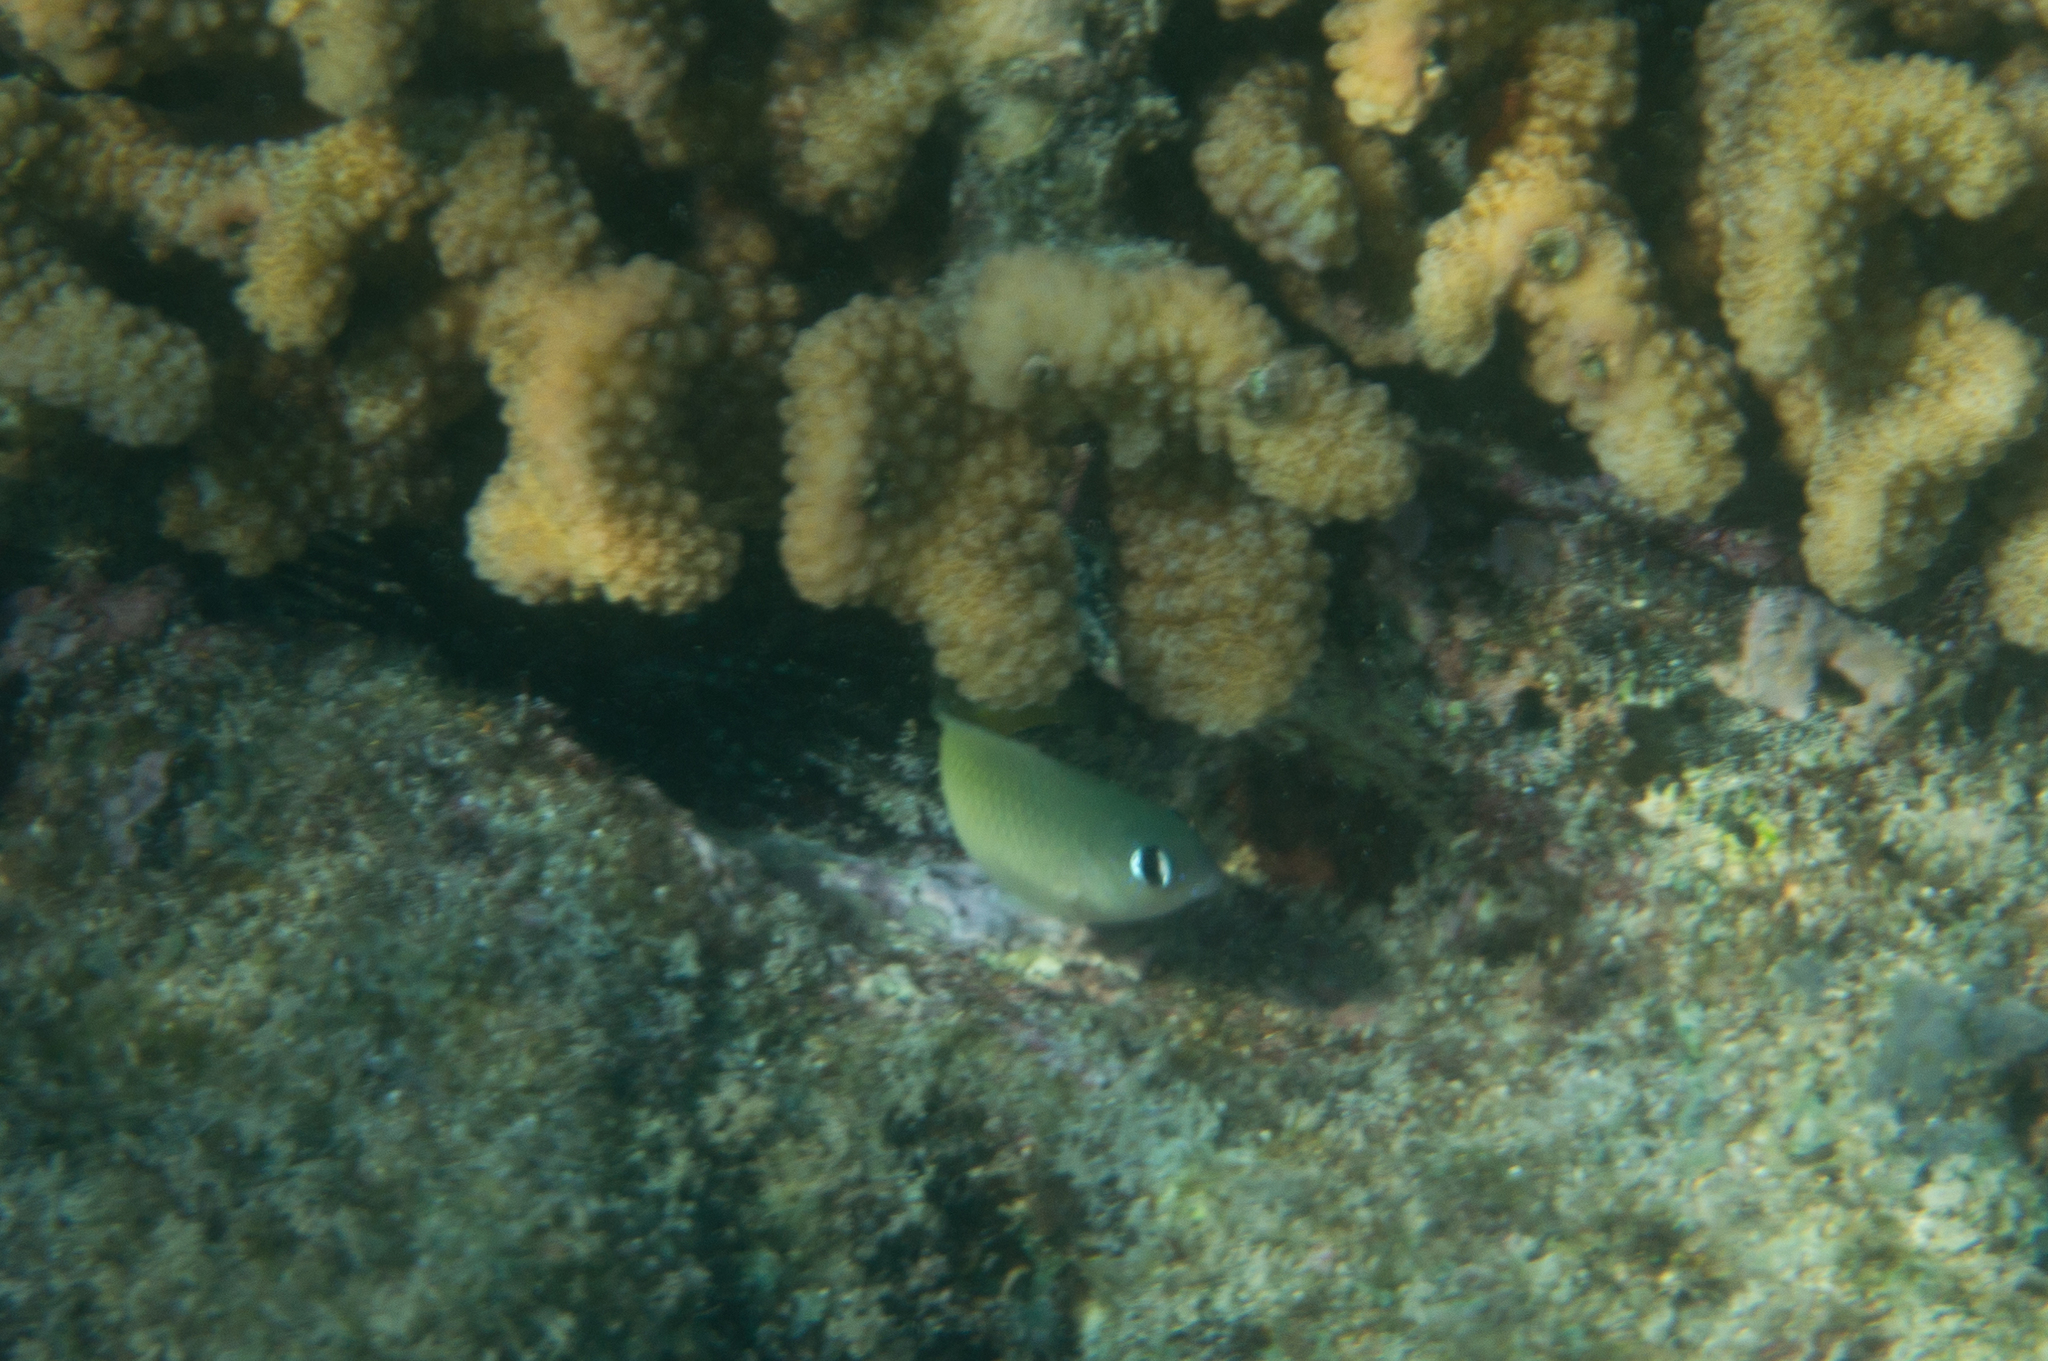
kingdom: Animalia
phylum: Chordata
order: Perciformes
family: Pomacentridae
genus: Plectroglyphidodon
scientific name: Plectroglyphidodon imparipennis
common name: Brighteye damsel
